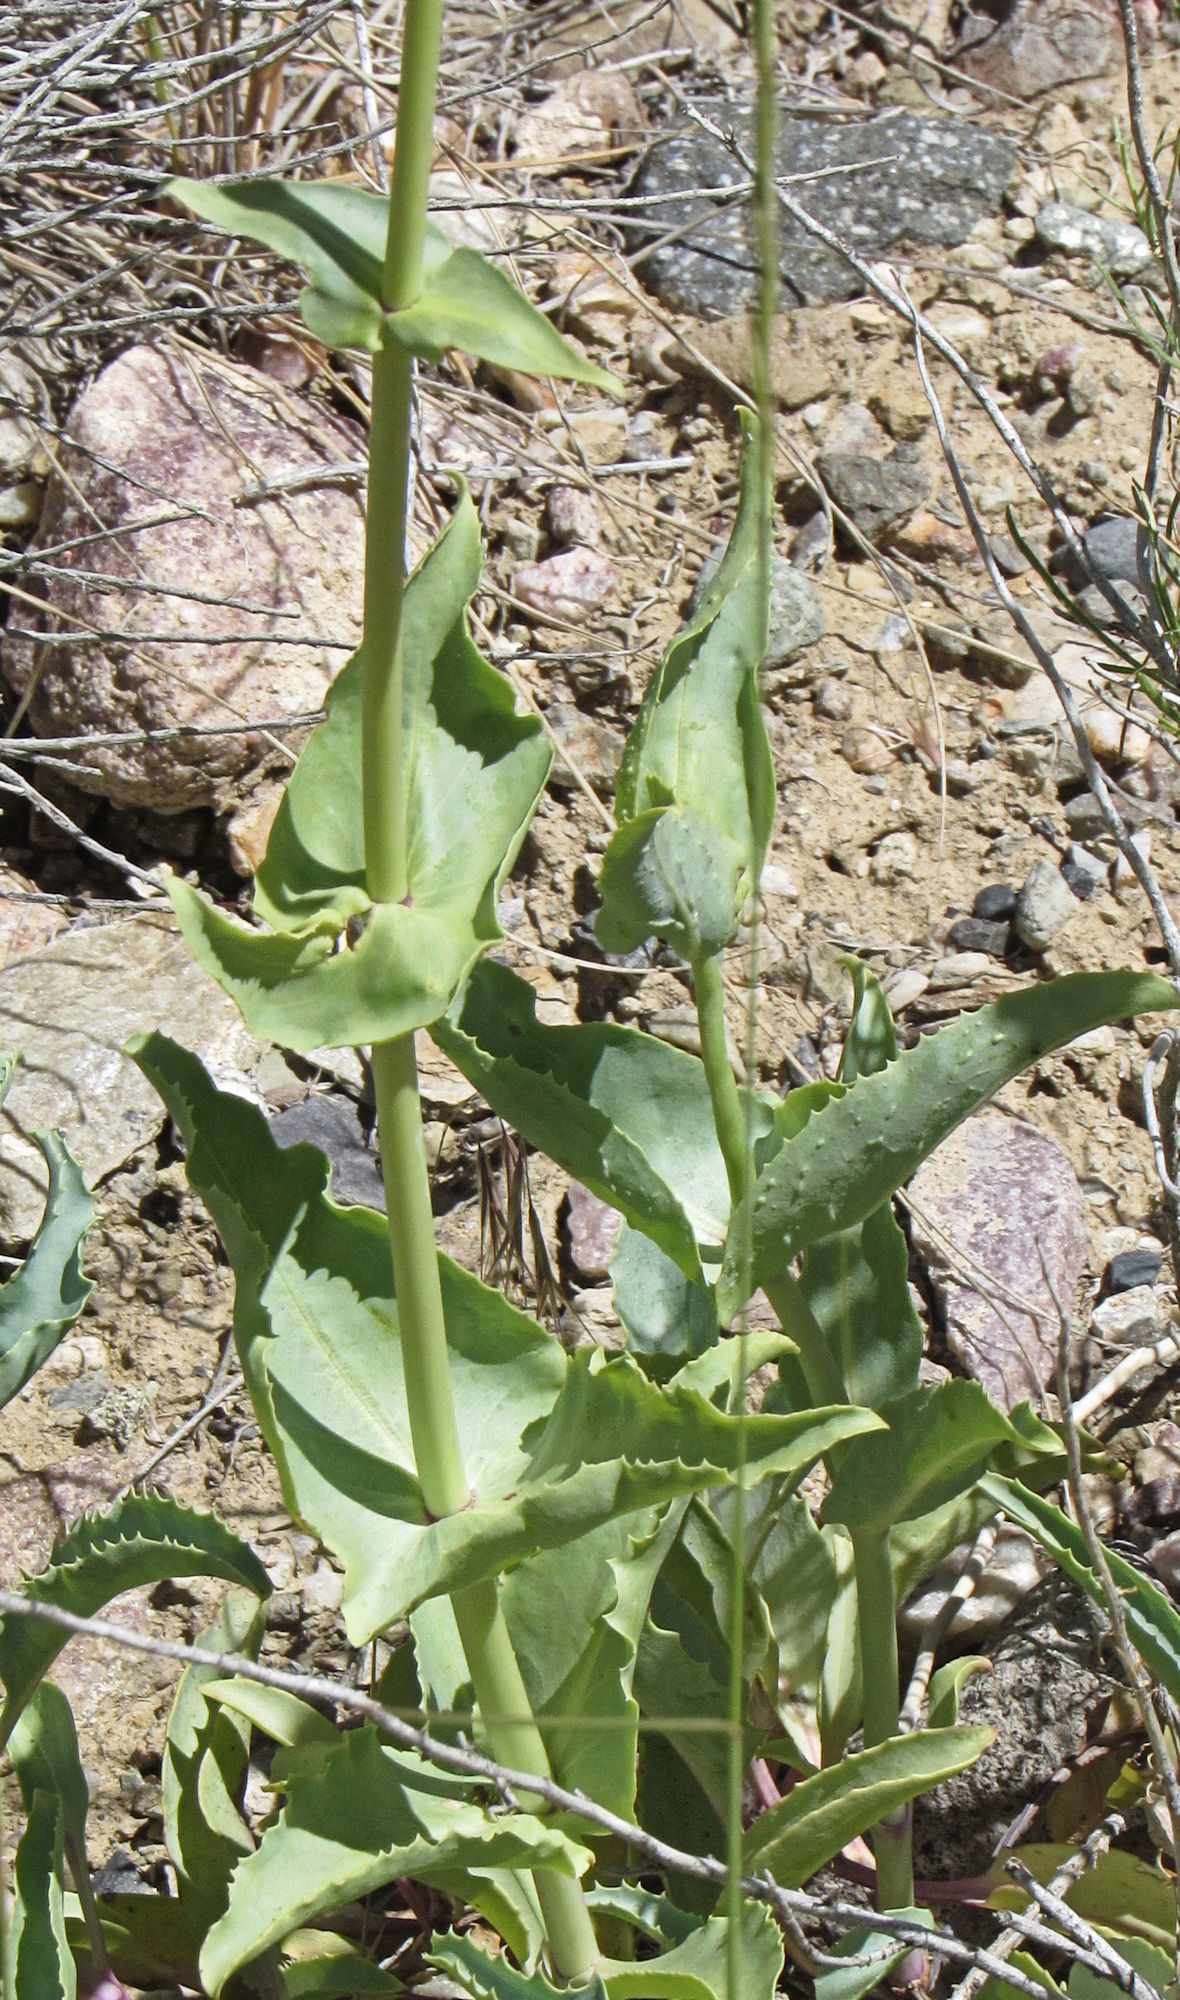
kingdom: Plantae
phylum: Tracheophyta
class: Magnoliopsida
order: Lamiales
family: Plantaginaceae
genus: Penstemon
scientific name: Penstemon palmeri
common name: Palmer penstemon
